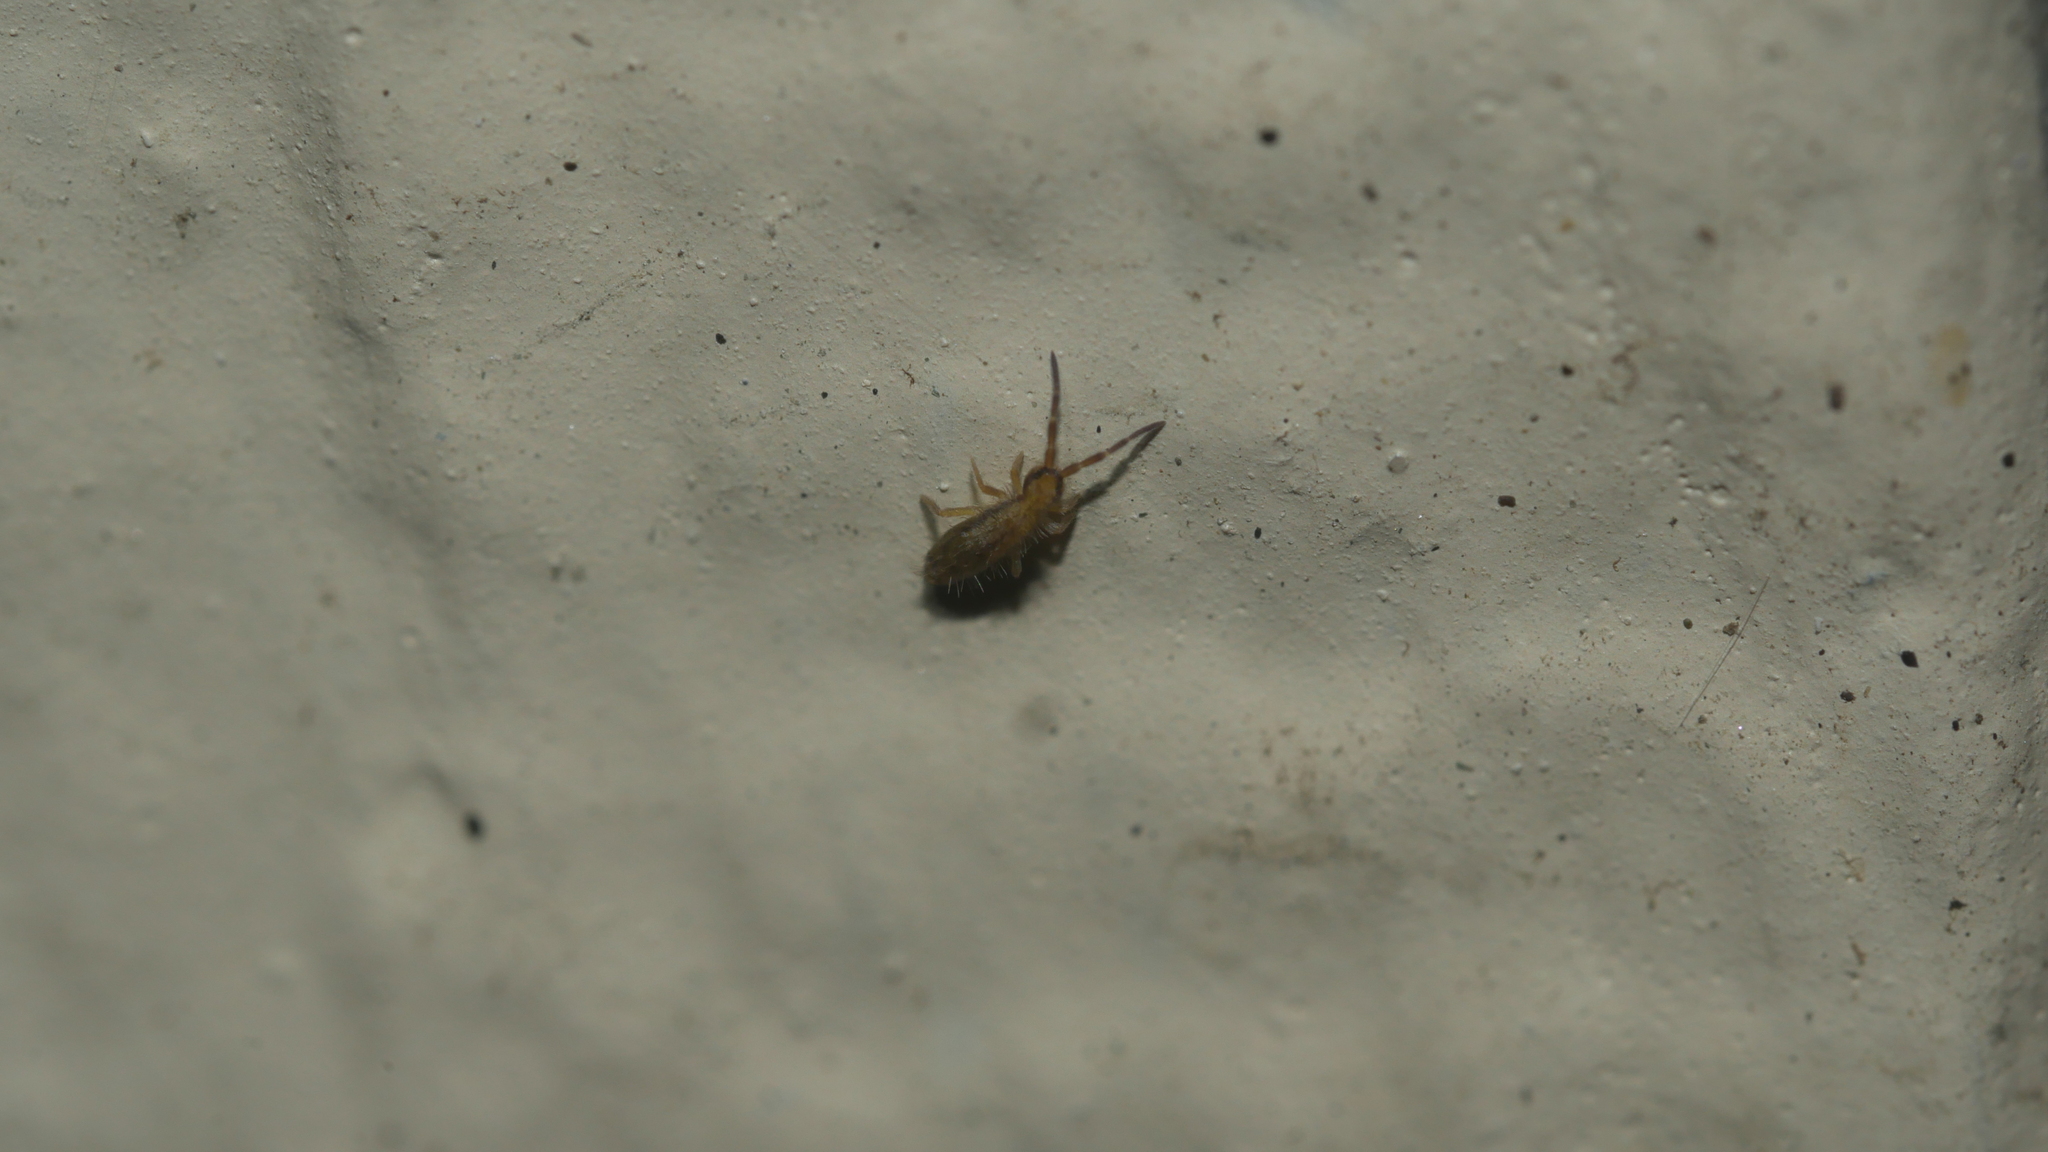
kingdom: Animalia
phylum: Arthropoda
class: Collembola
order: Entomobryomorpha
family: Entomobryidae
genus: Homidia
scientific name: Homidia socia
